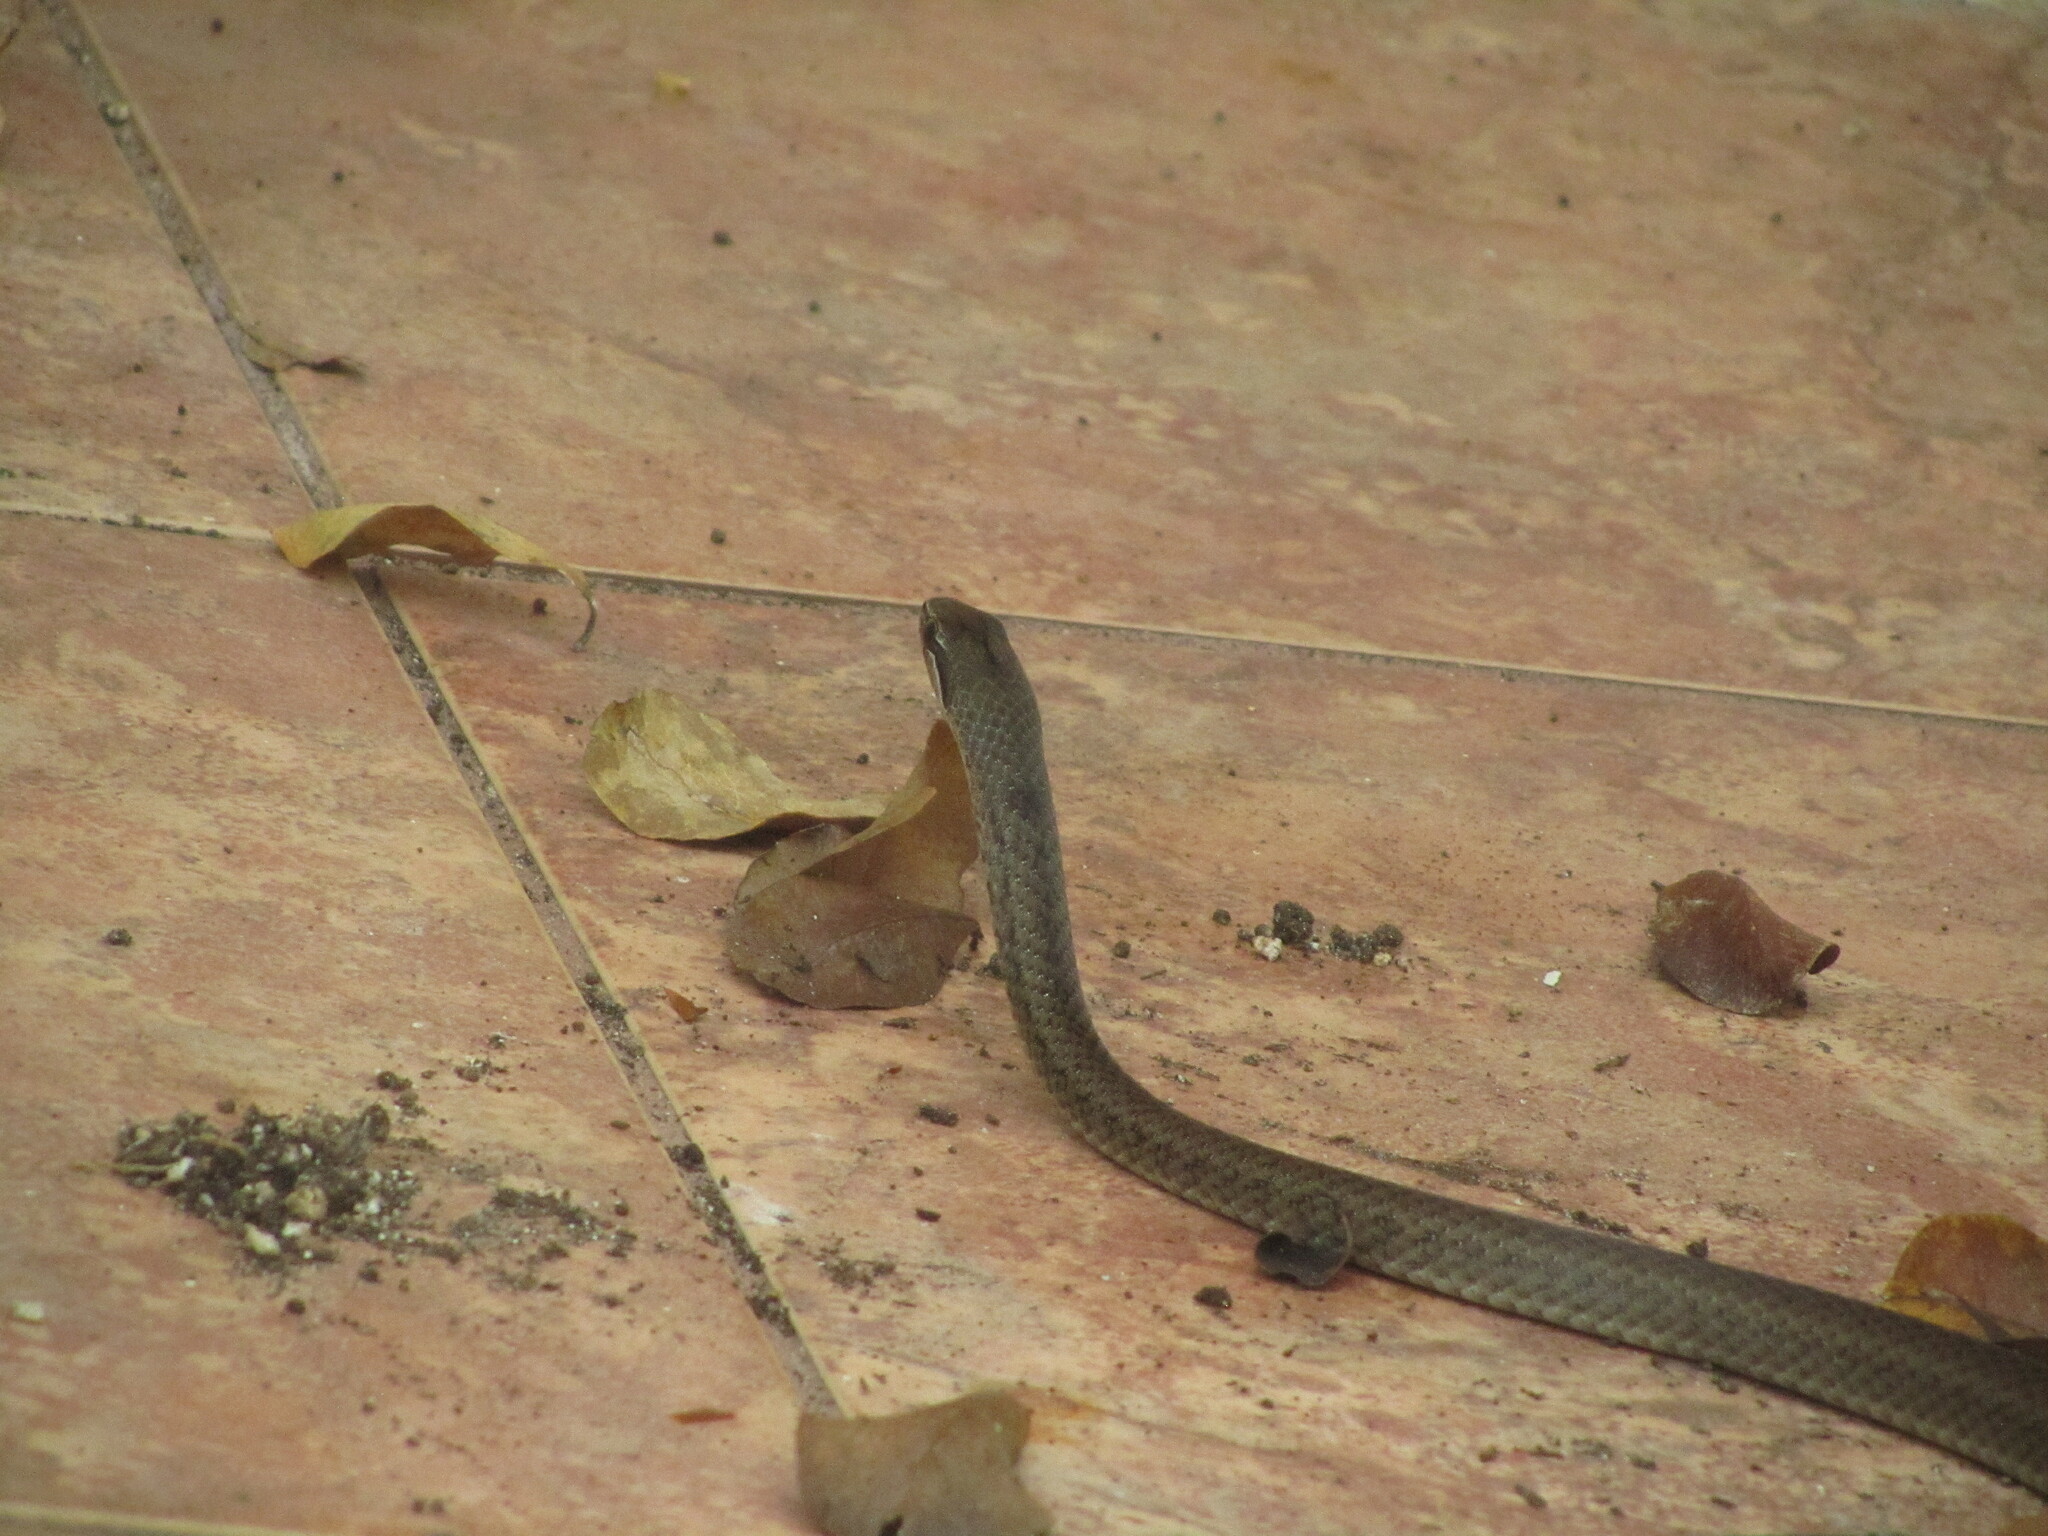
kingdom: Animalia
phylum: Chordata
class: Squamata
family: Colubridae
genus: Cubophis
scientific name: Cubophis caymanus
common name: Black snake
